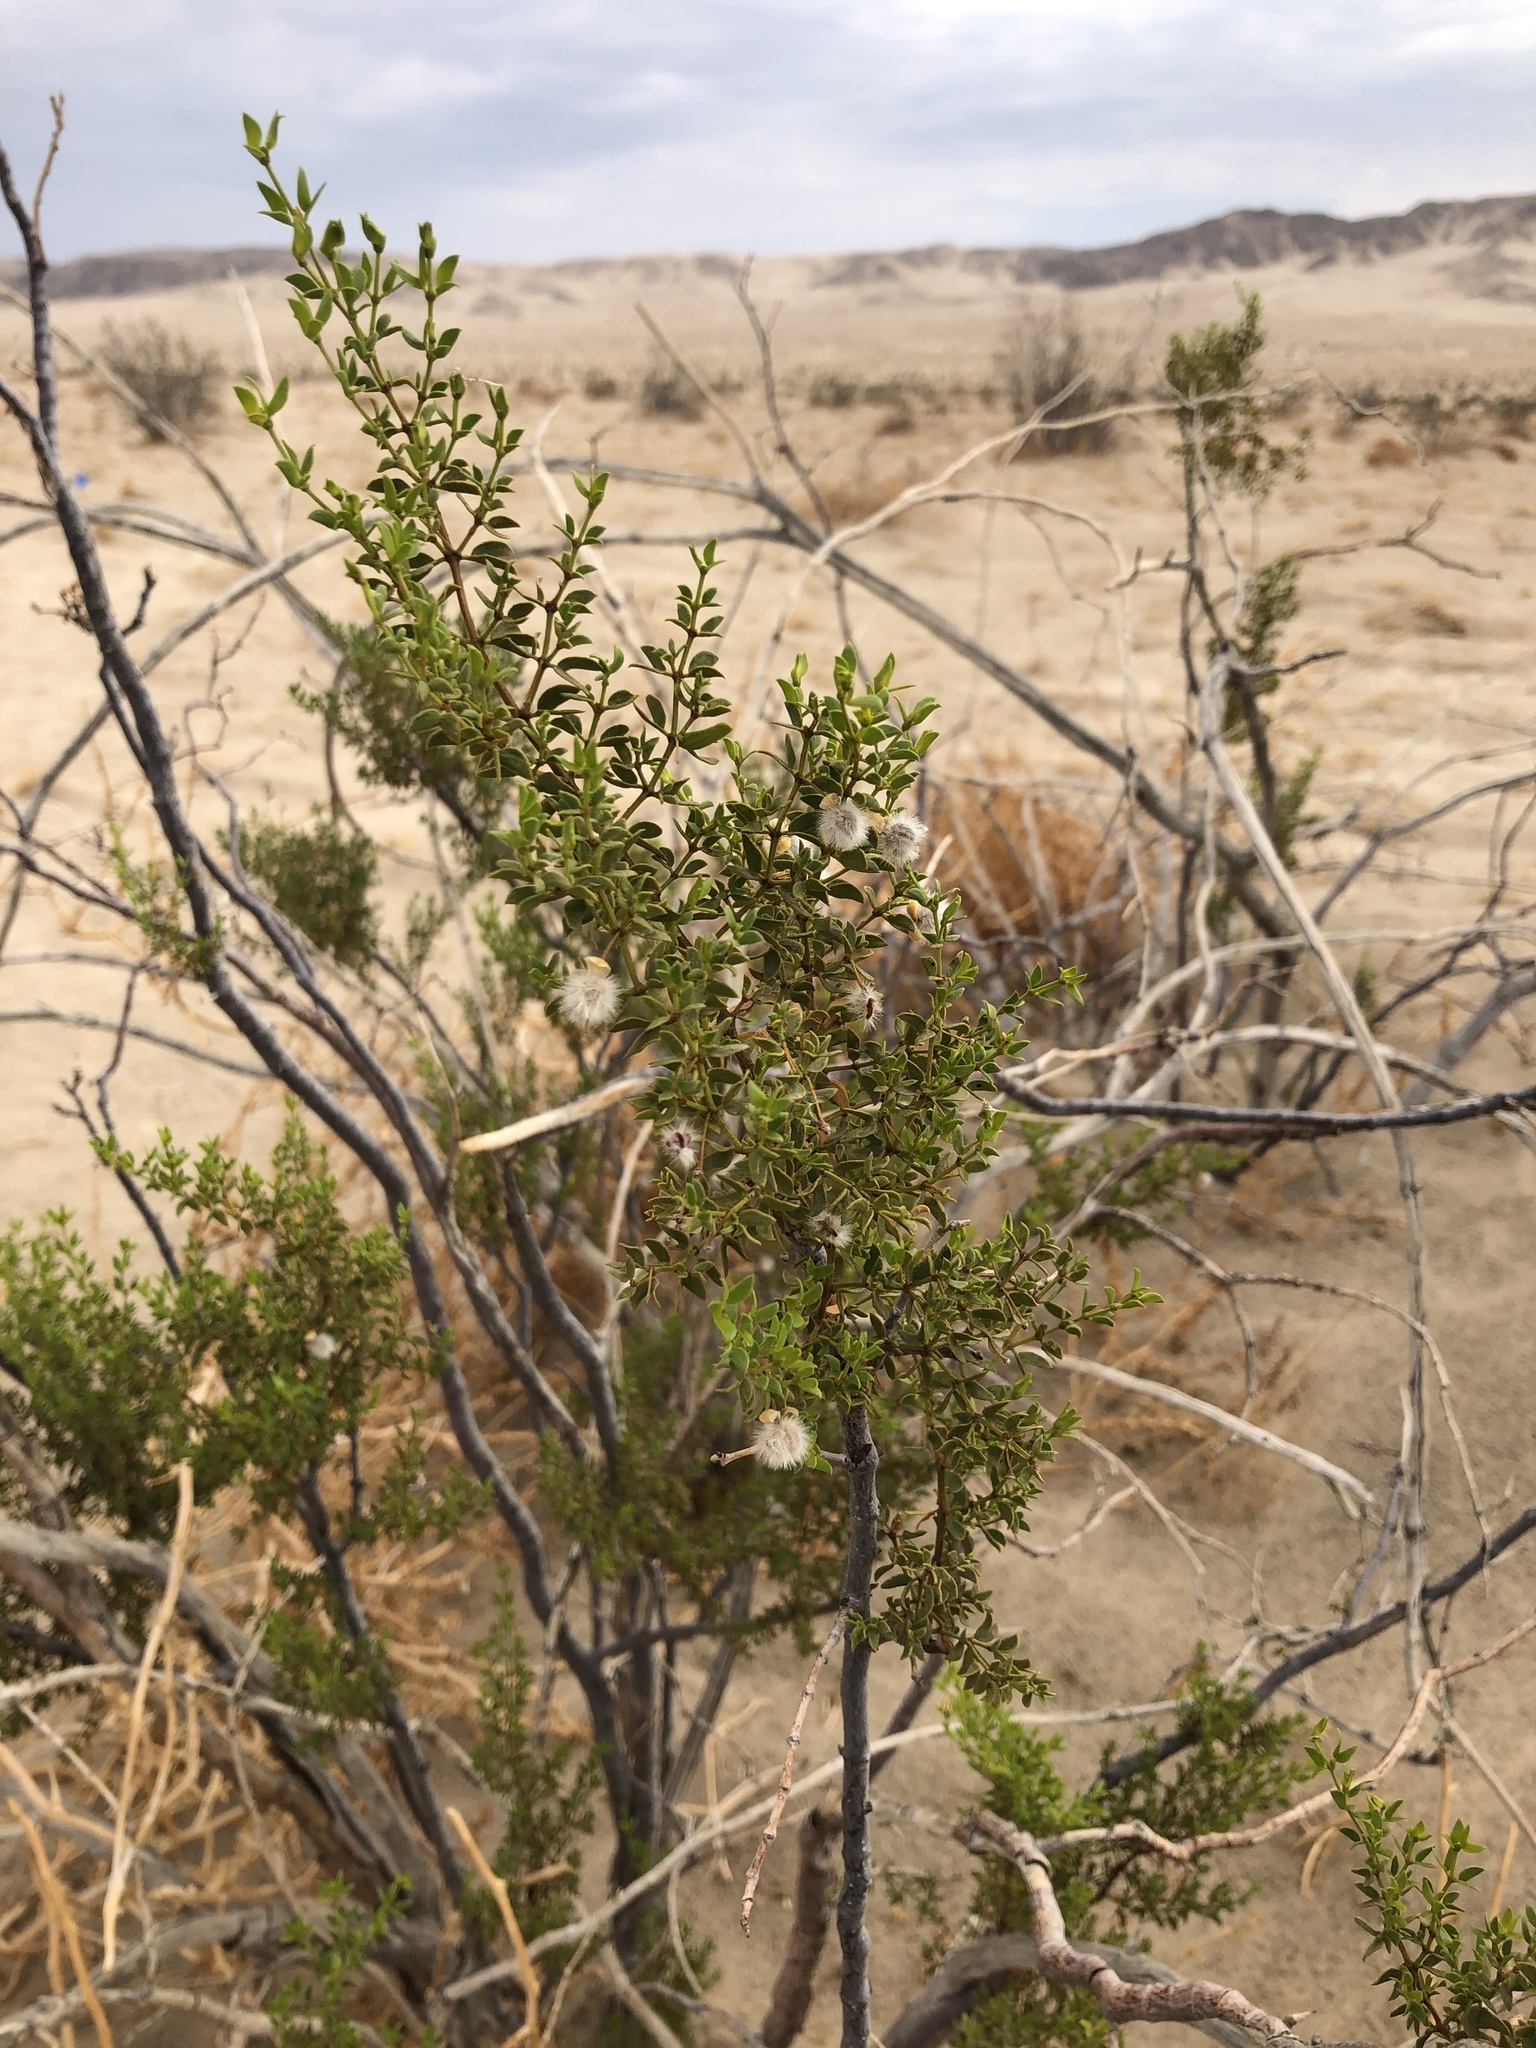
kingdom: Plantae
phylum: Tracheophyta
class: Magnoliopsida
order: Zygophyllales
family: Zygophyllaceae
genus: Larrea
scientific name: Larrea tridentata
